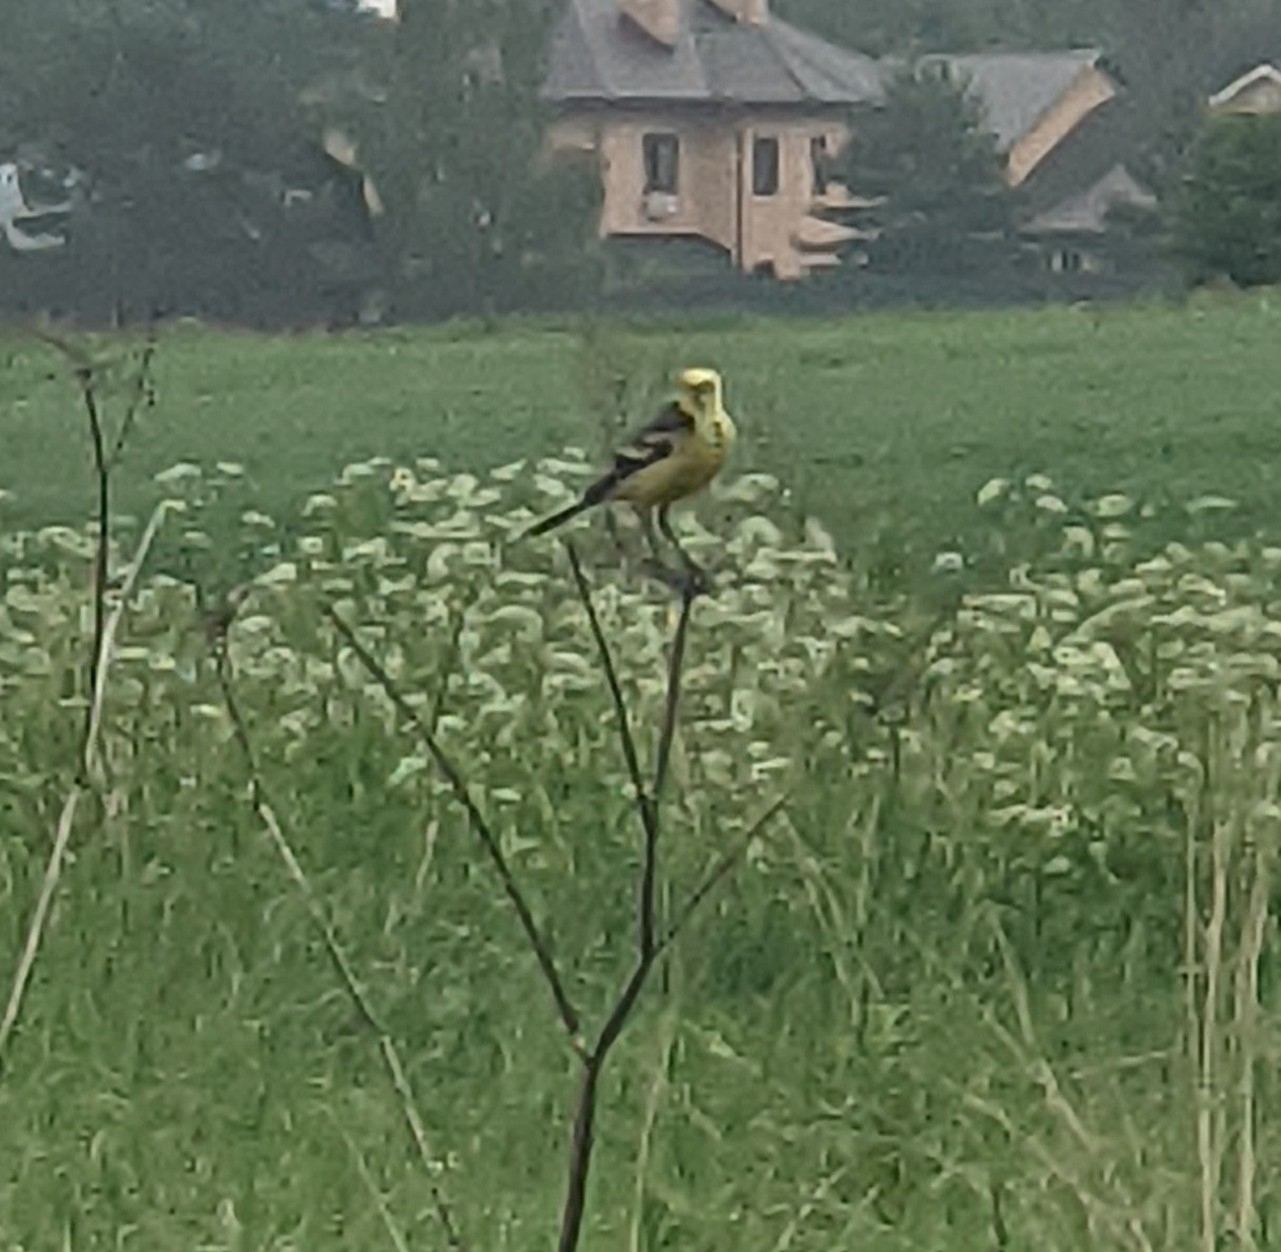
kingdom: Animalia
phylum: Chordata
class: Aves
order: Passeriformes
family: Motacillidae
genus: Motacilla
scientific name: Motacilla citreola
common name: Citrine wagtail
